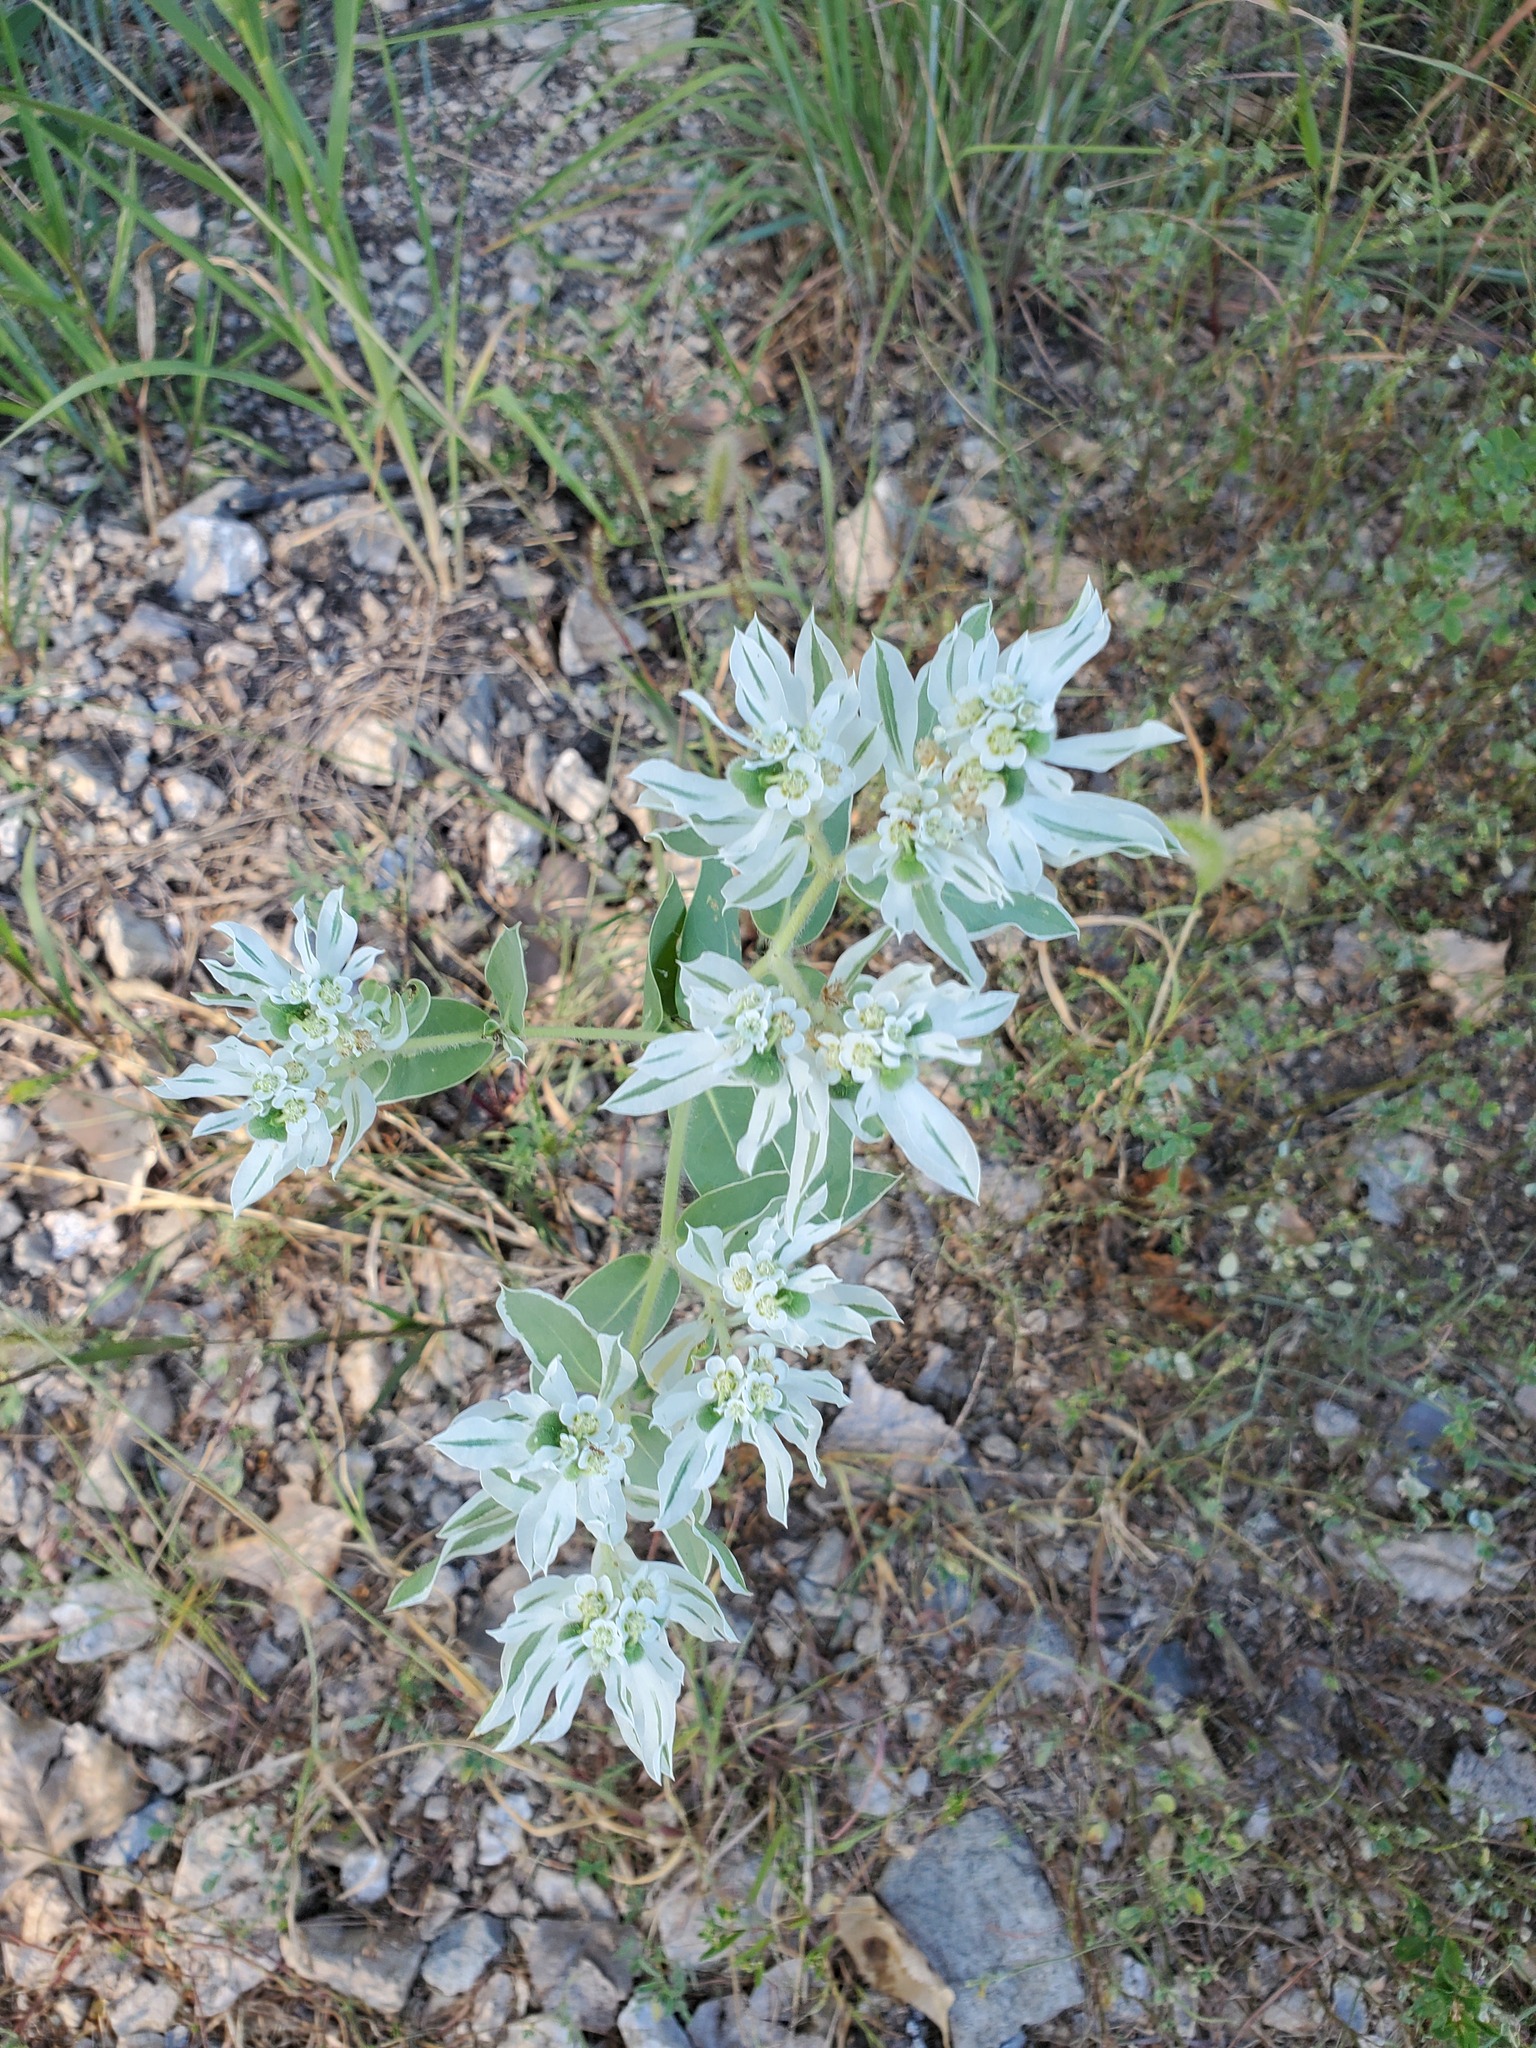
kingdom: Plantae
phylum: Tracheophyta
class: Magnoliopsida
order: Malpighiales
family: Euphorbiaceae
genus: Euphorbia
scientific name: Euphorbia marginata
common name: Ghostweed
